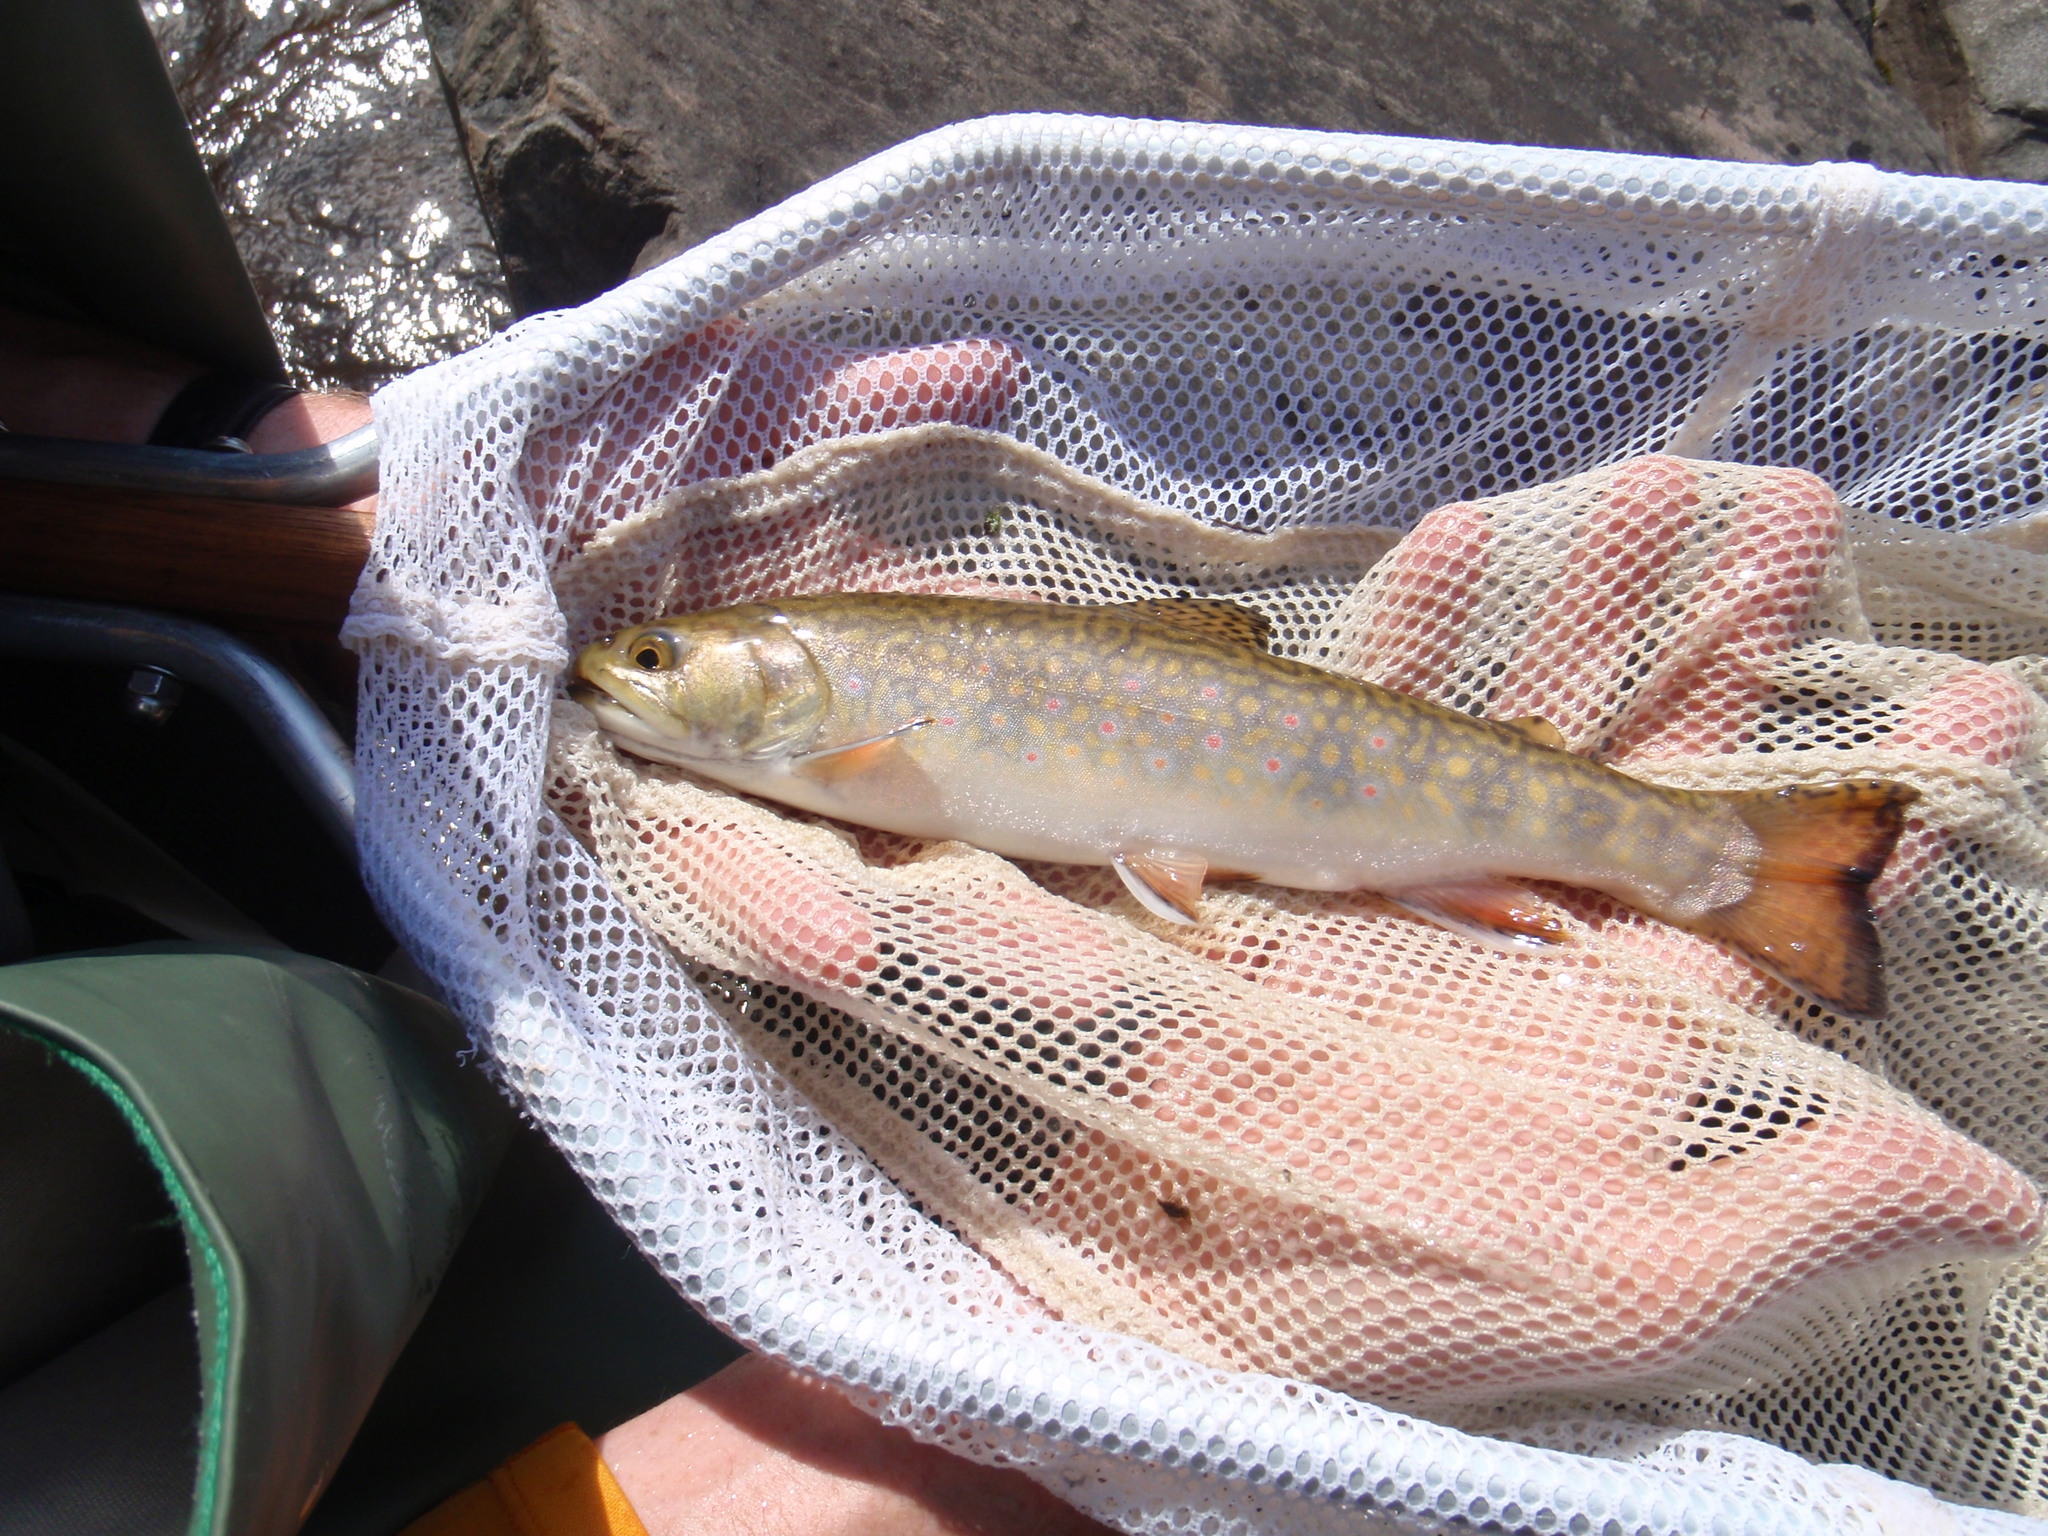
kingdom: Animalia
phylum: Chordata
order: Salmoniformes
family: Salmonidae
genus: Salvelinus
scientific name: Salvelinus fontinalis
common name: Brook trout
